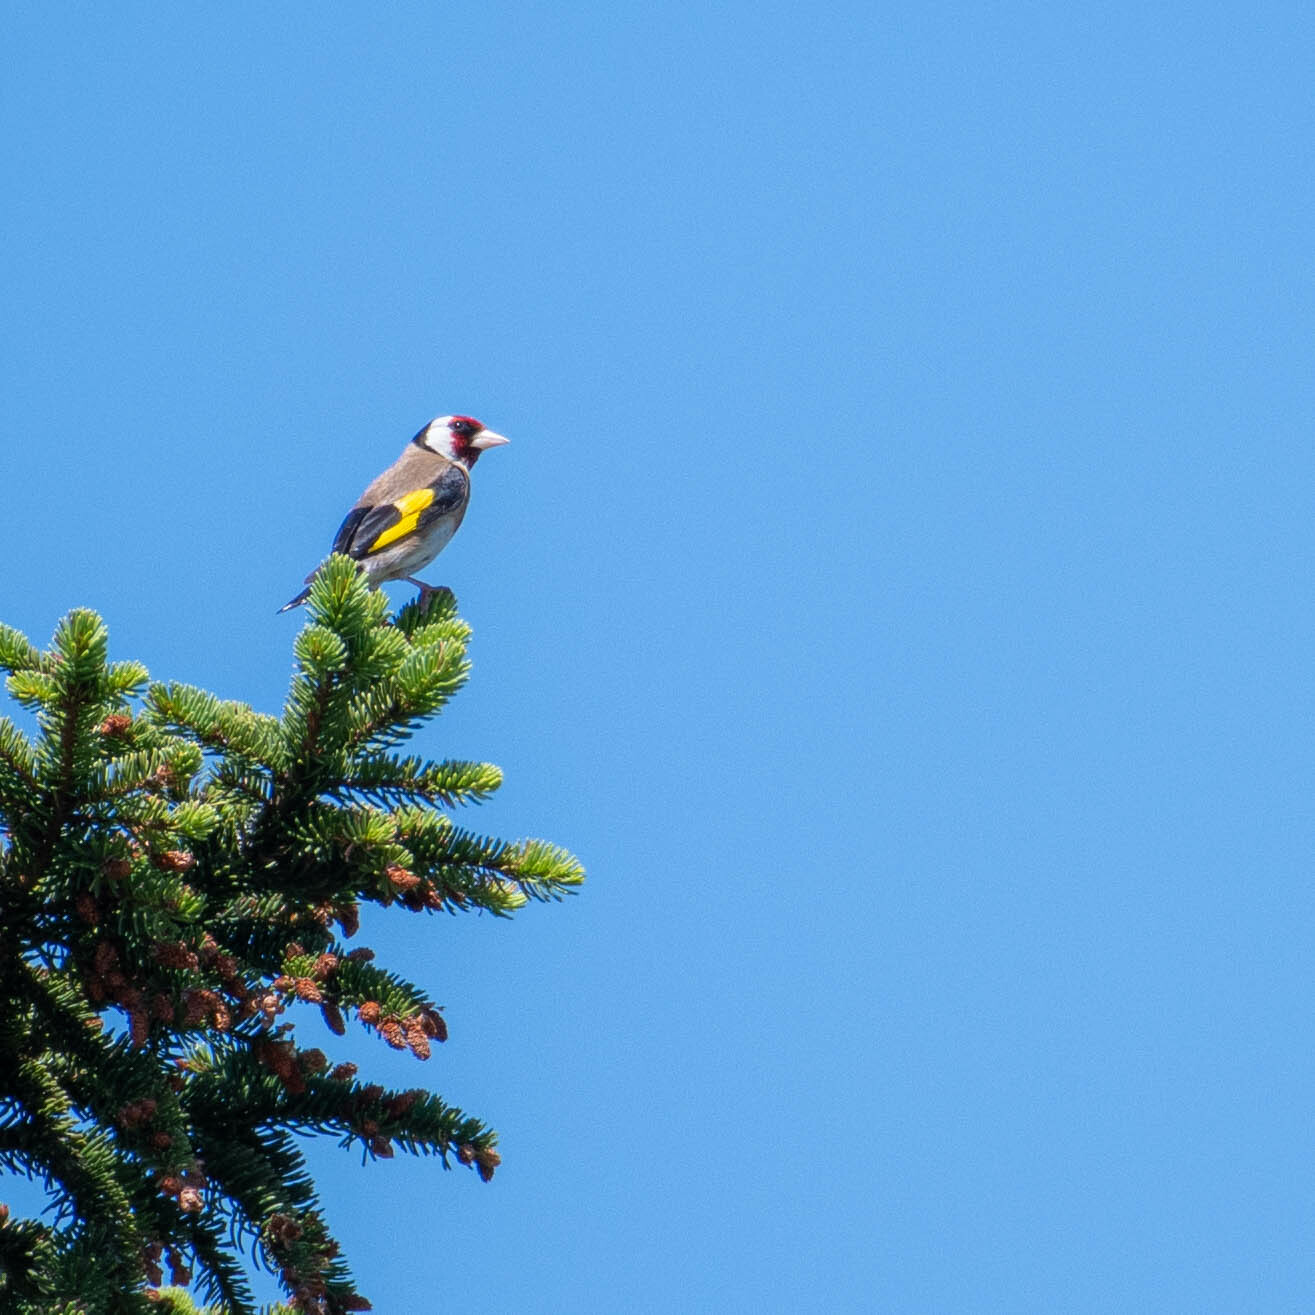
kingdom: Animalia
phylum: Chordata
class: Aves
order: Passeriformes
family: Fringillidae
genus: Carduelis
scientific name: Carduelis carduelis
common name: European goldfinch
